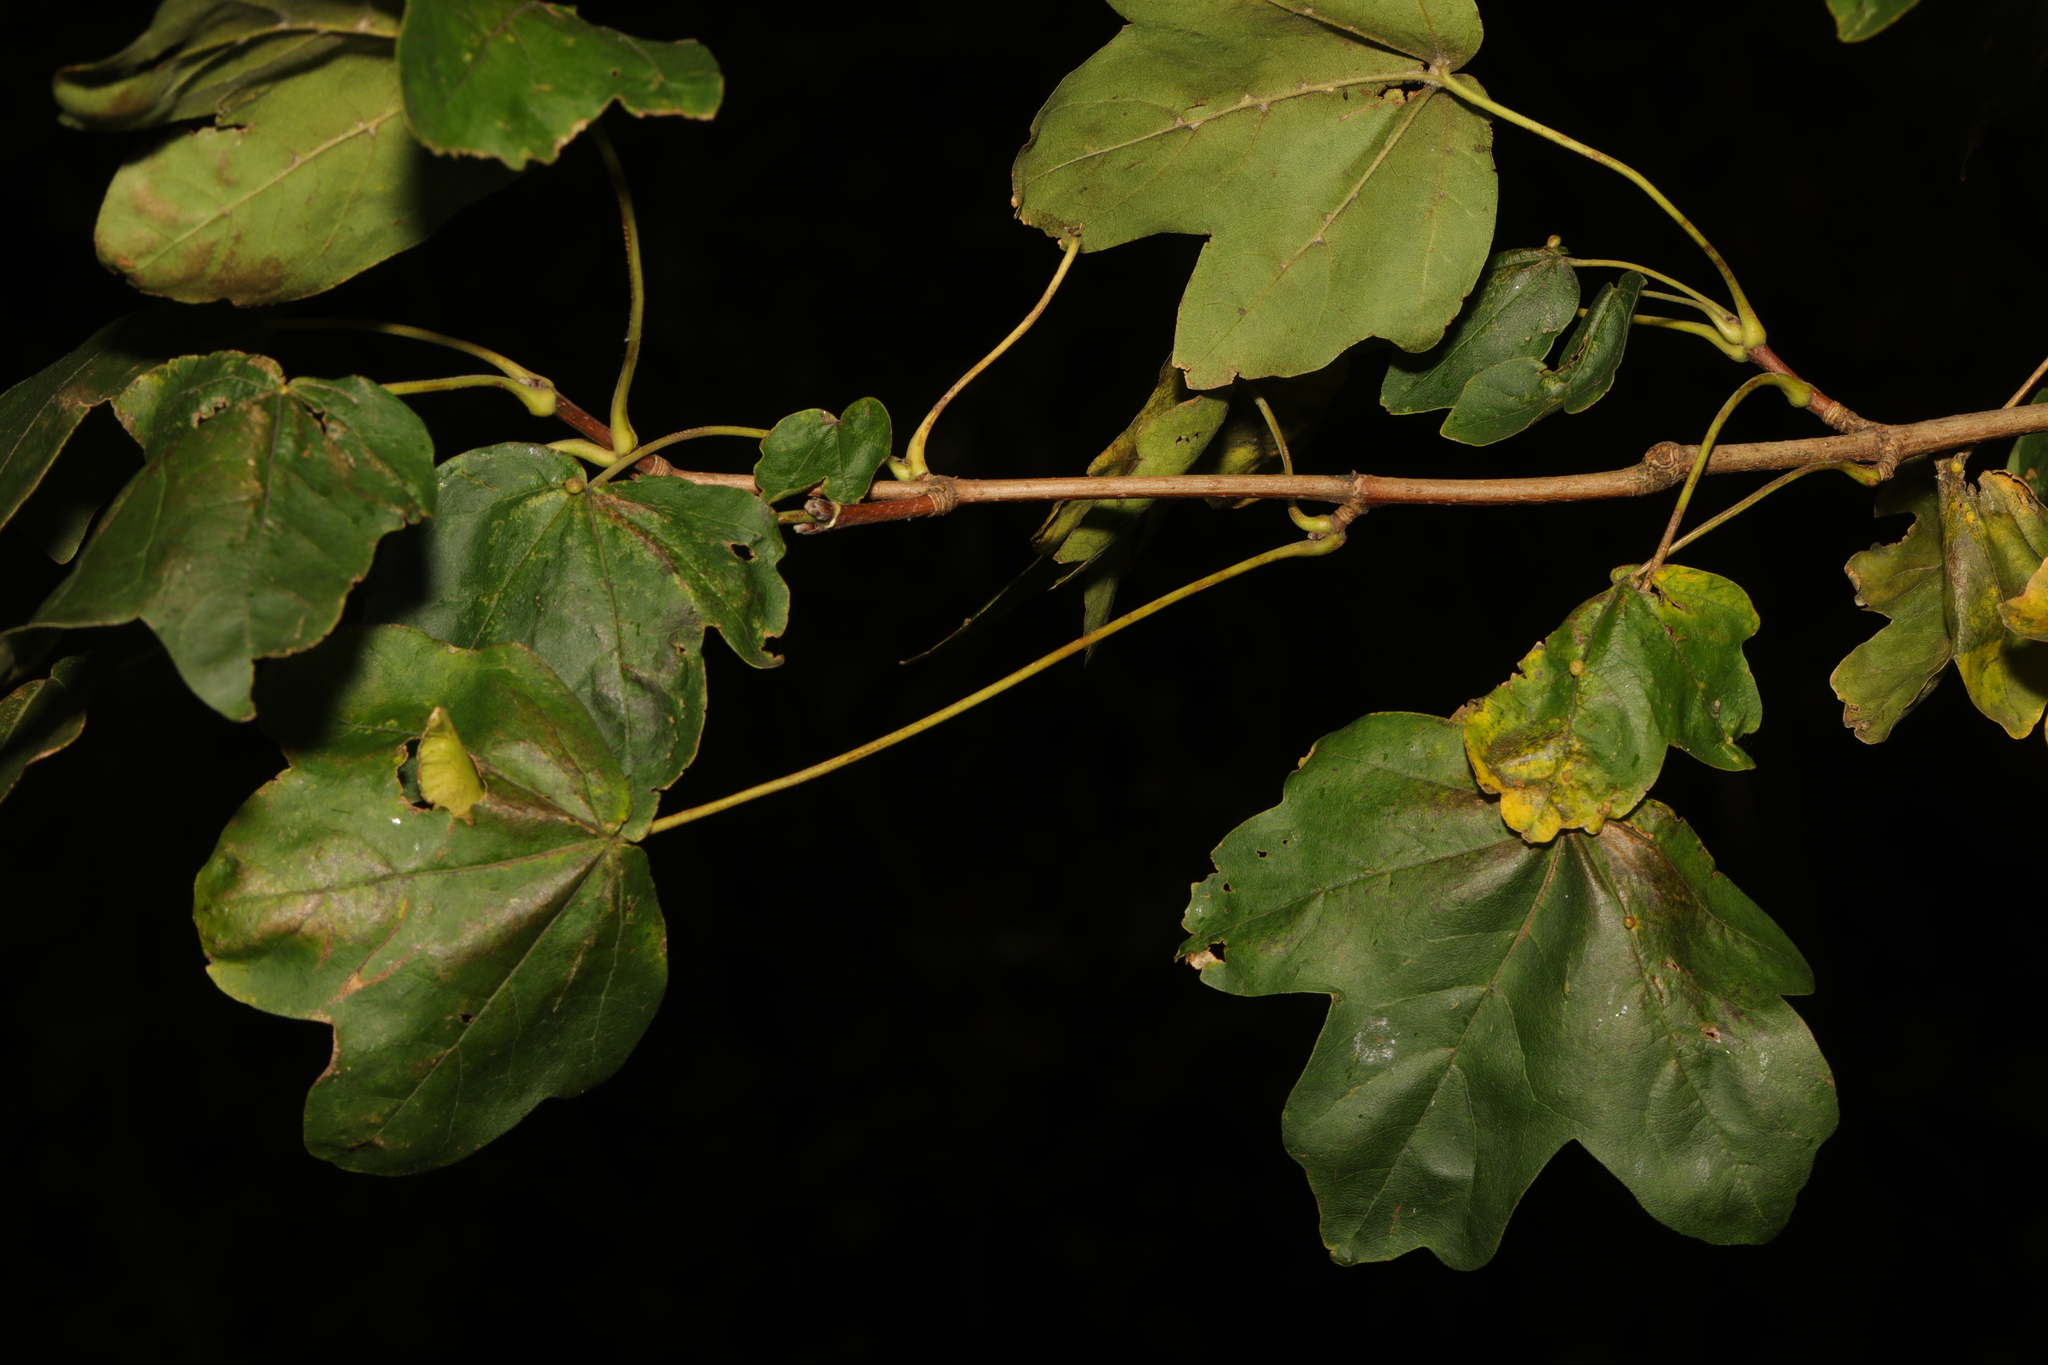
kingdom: Plantae
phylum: Tracheophyta
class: Magnoliopsida
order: Sapindales
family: Sapindaceae
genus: Acer
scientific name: Acer campestre
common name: Field maple
